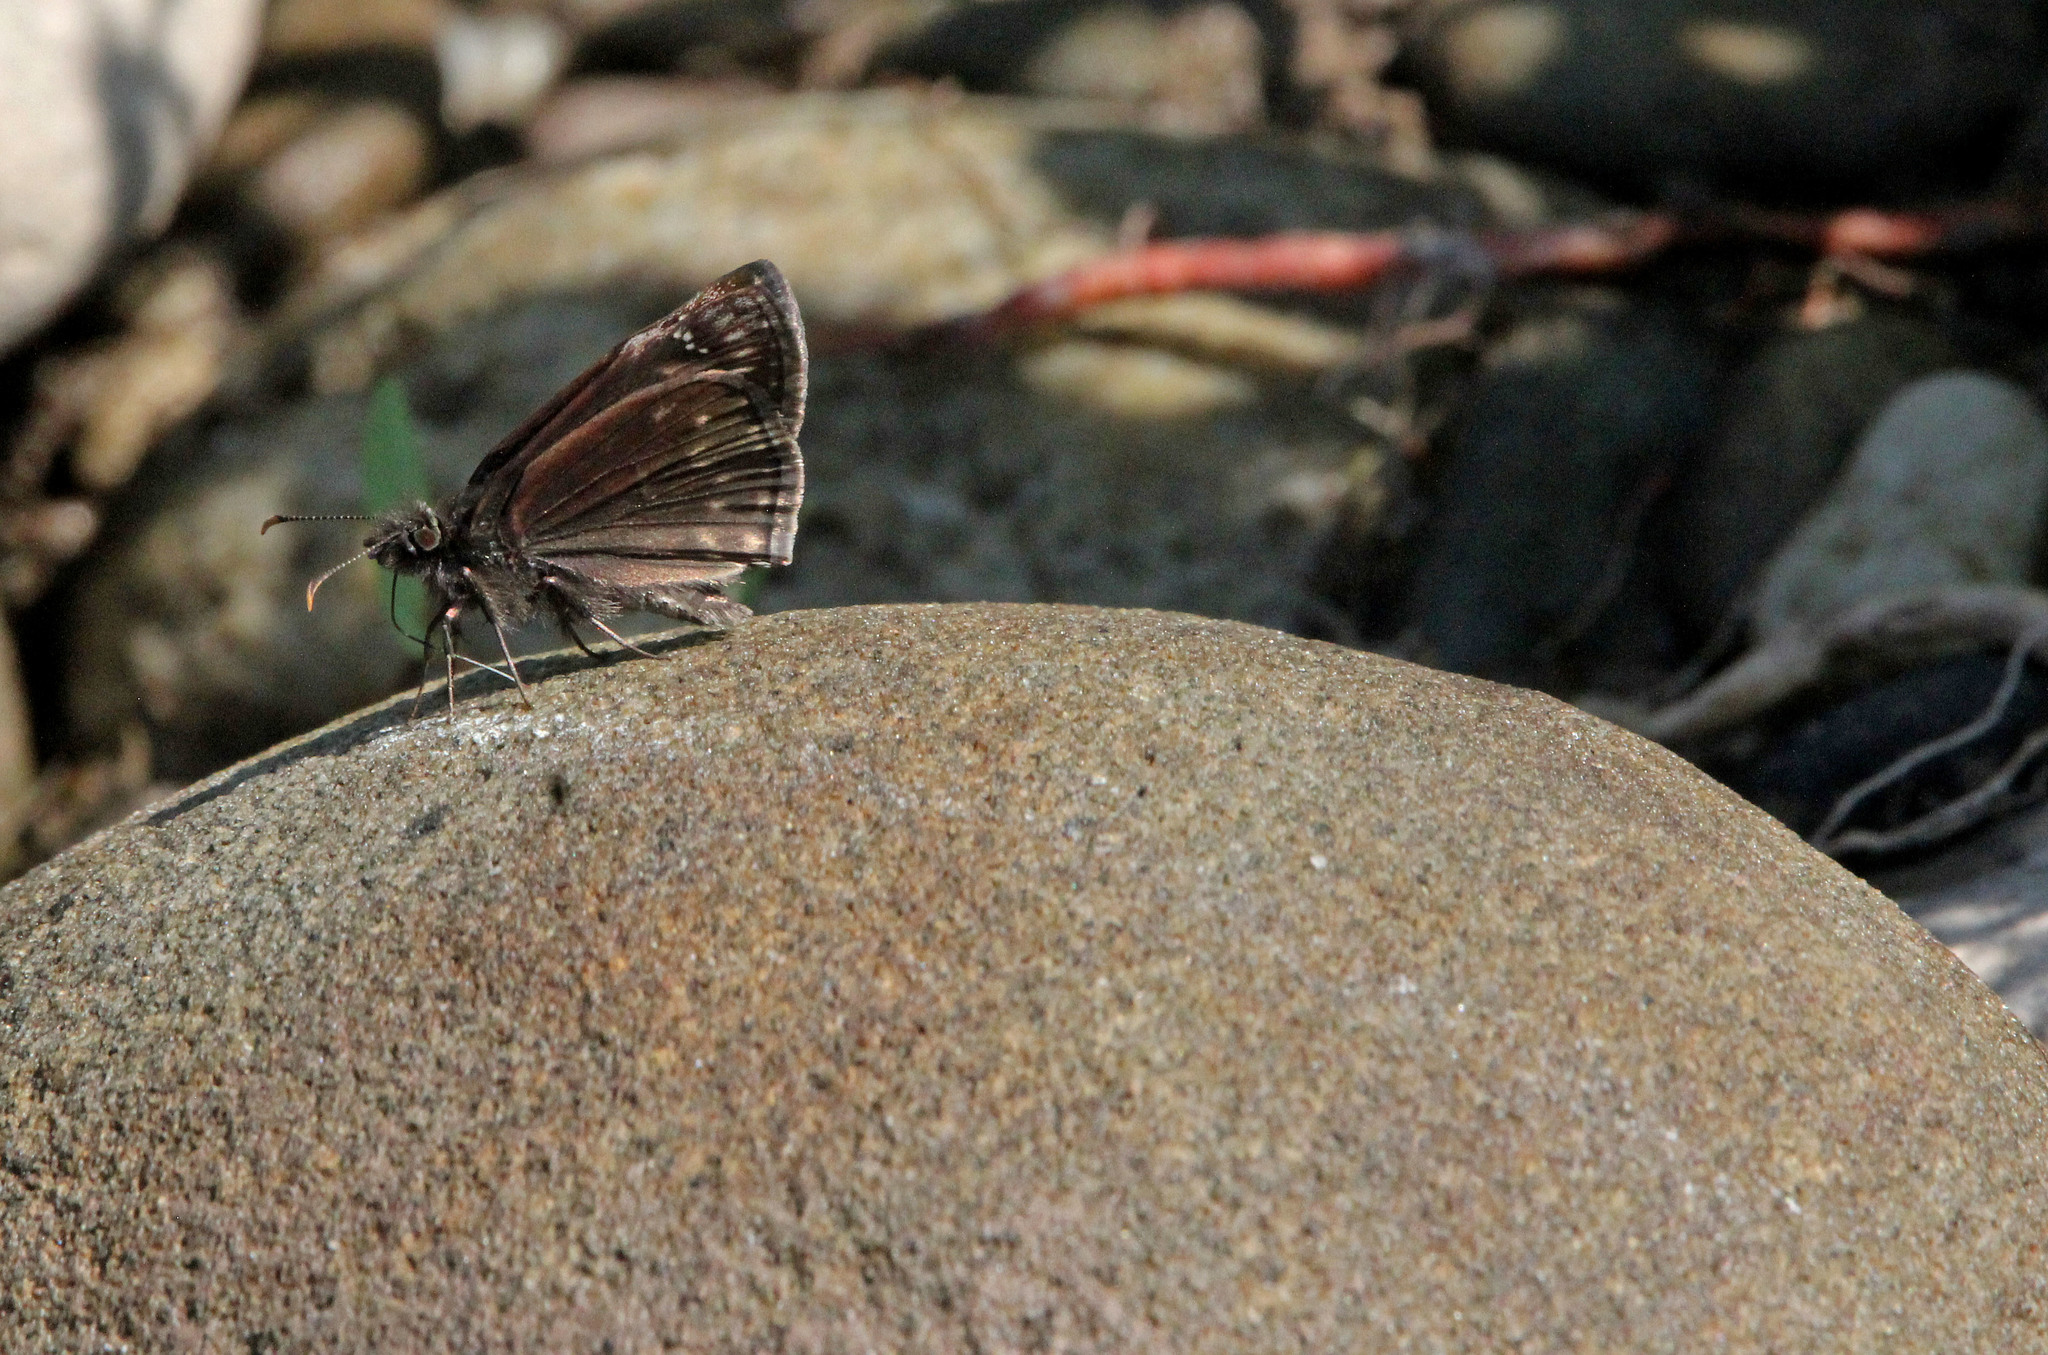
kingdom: Animalia
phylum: Arthropoda
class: Insecta
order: Lepidoptera
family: Hesperiidae
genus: Erynnis
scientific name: Erynnis baptisiae
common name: Wild indigo duskywing
